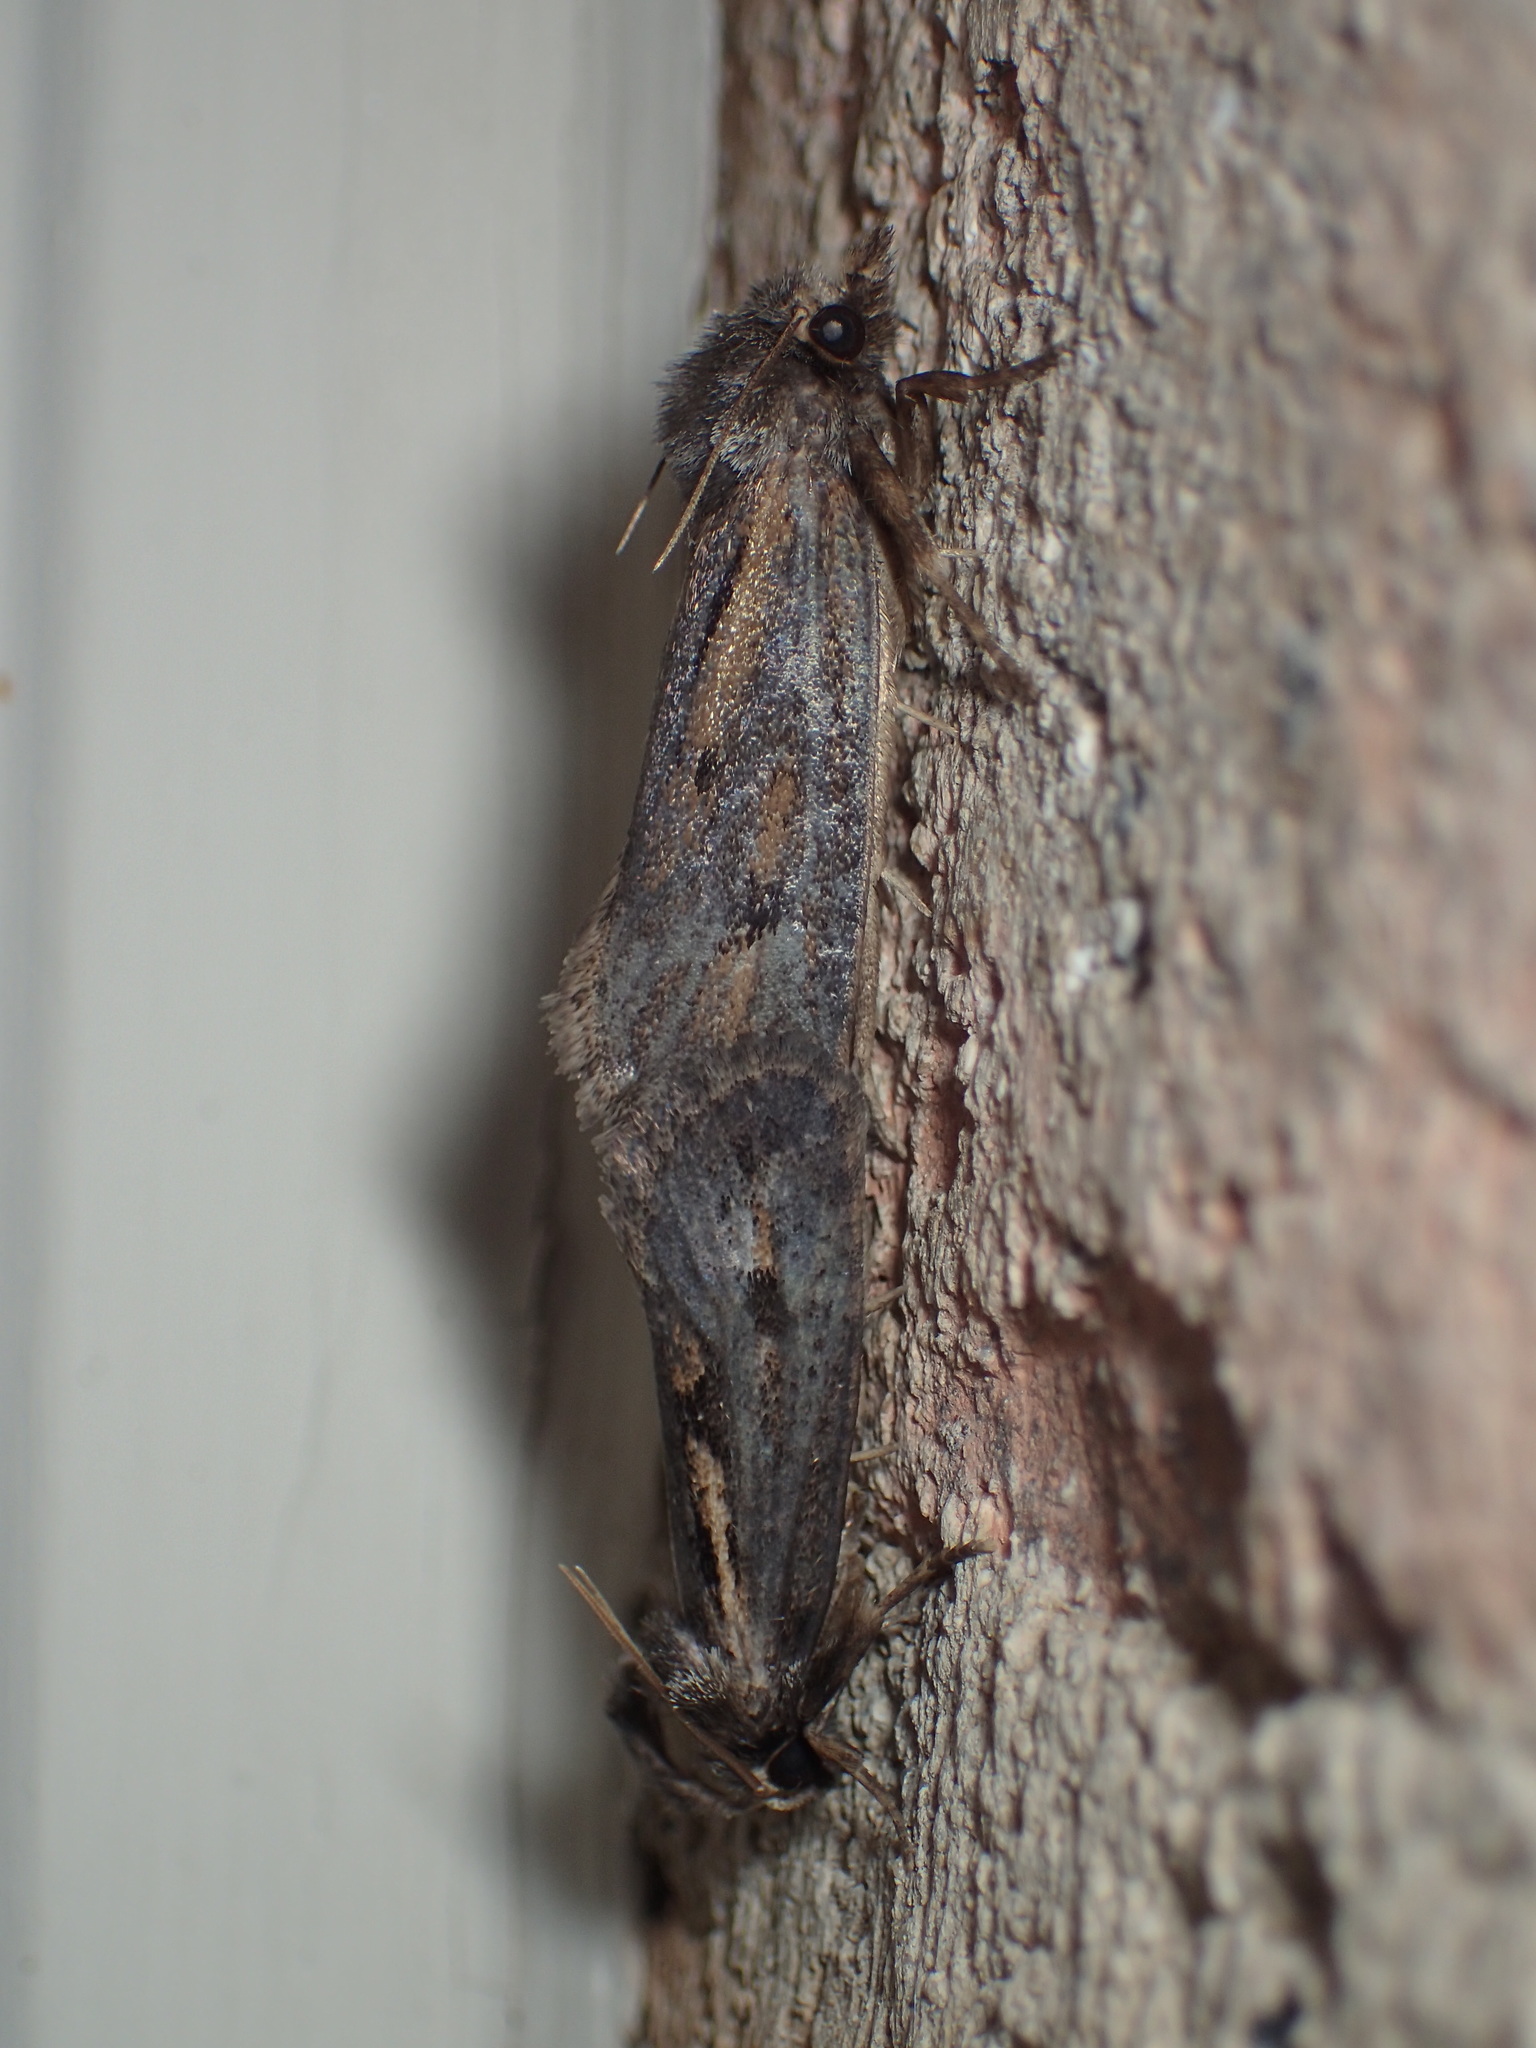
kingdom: Animalia
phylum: Arthropoda
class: Insecta
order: Lepidoptera
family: Tineidae
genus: Acrolophus
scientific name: Acrolophus popeanella
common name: Clemens' grass tubeworm moth
